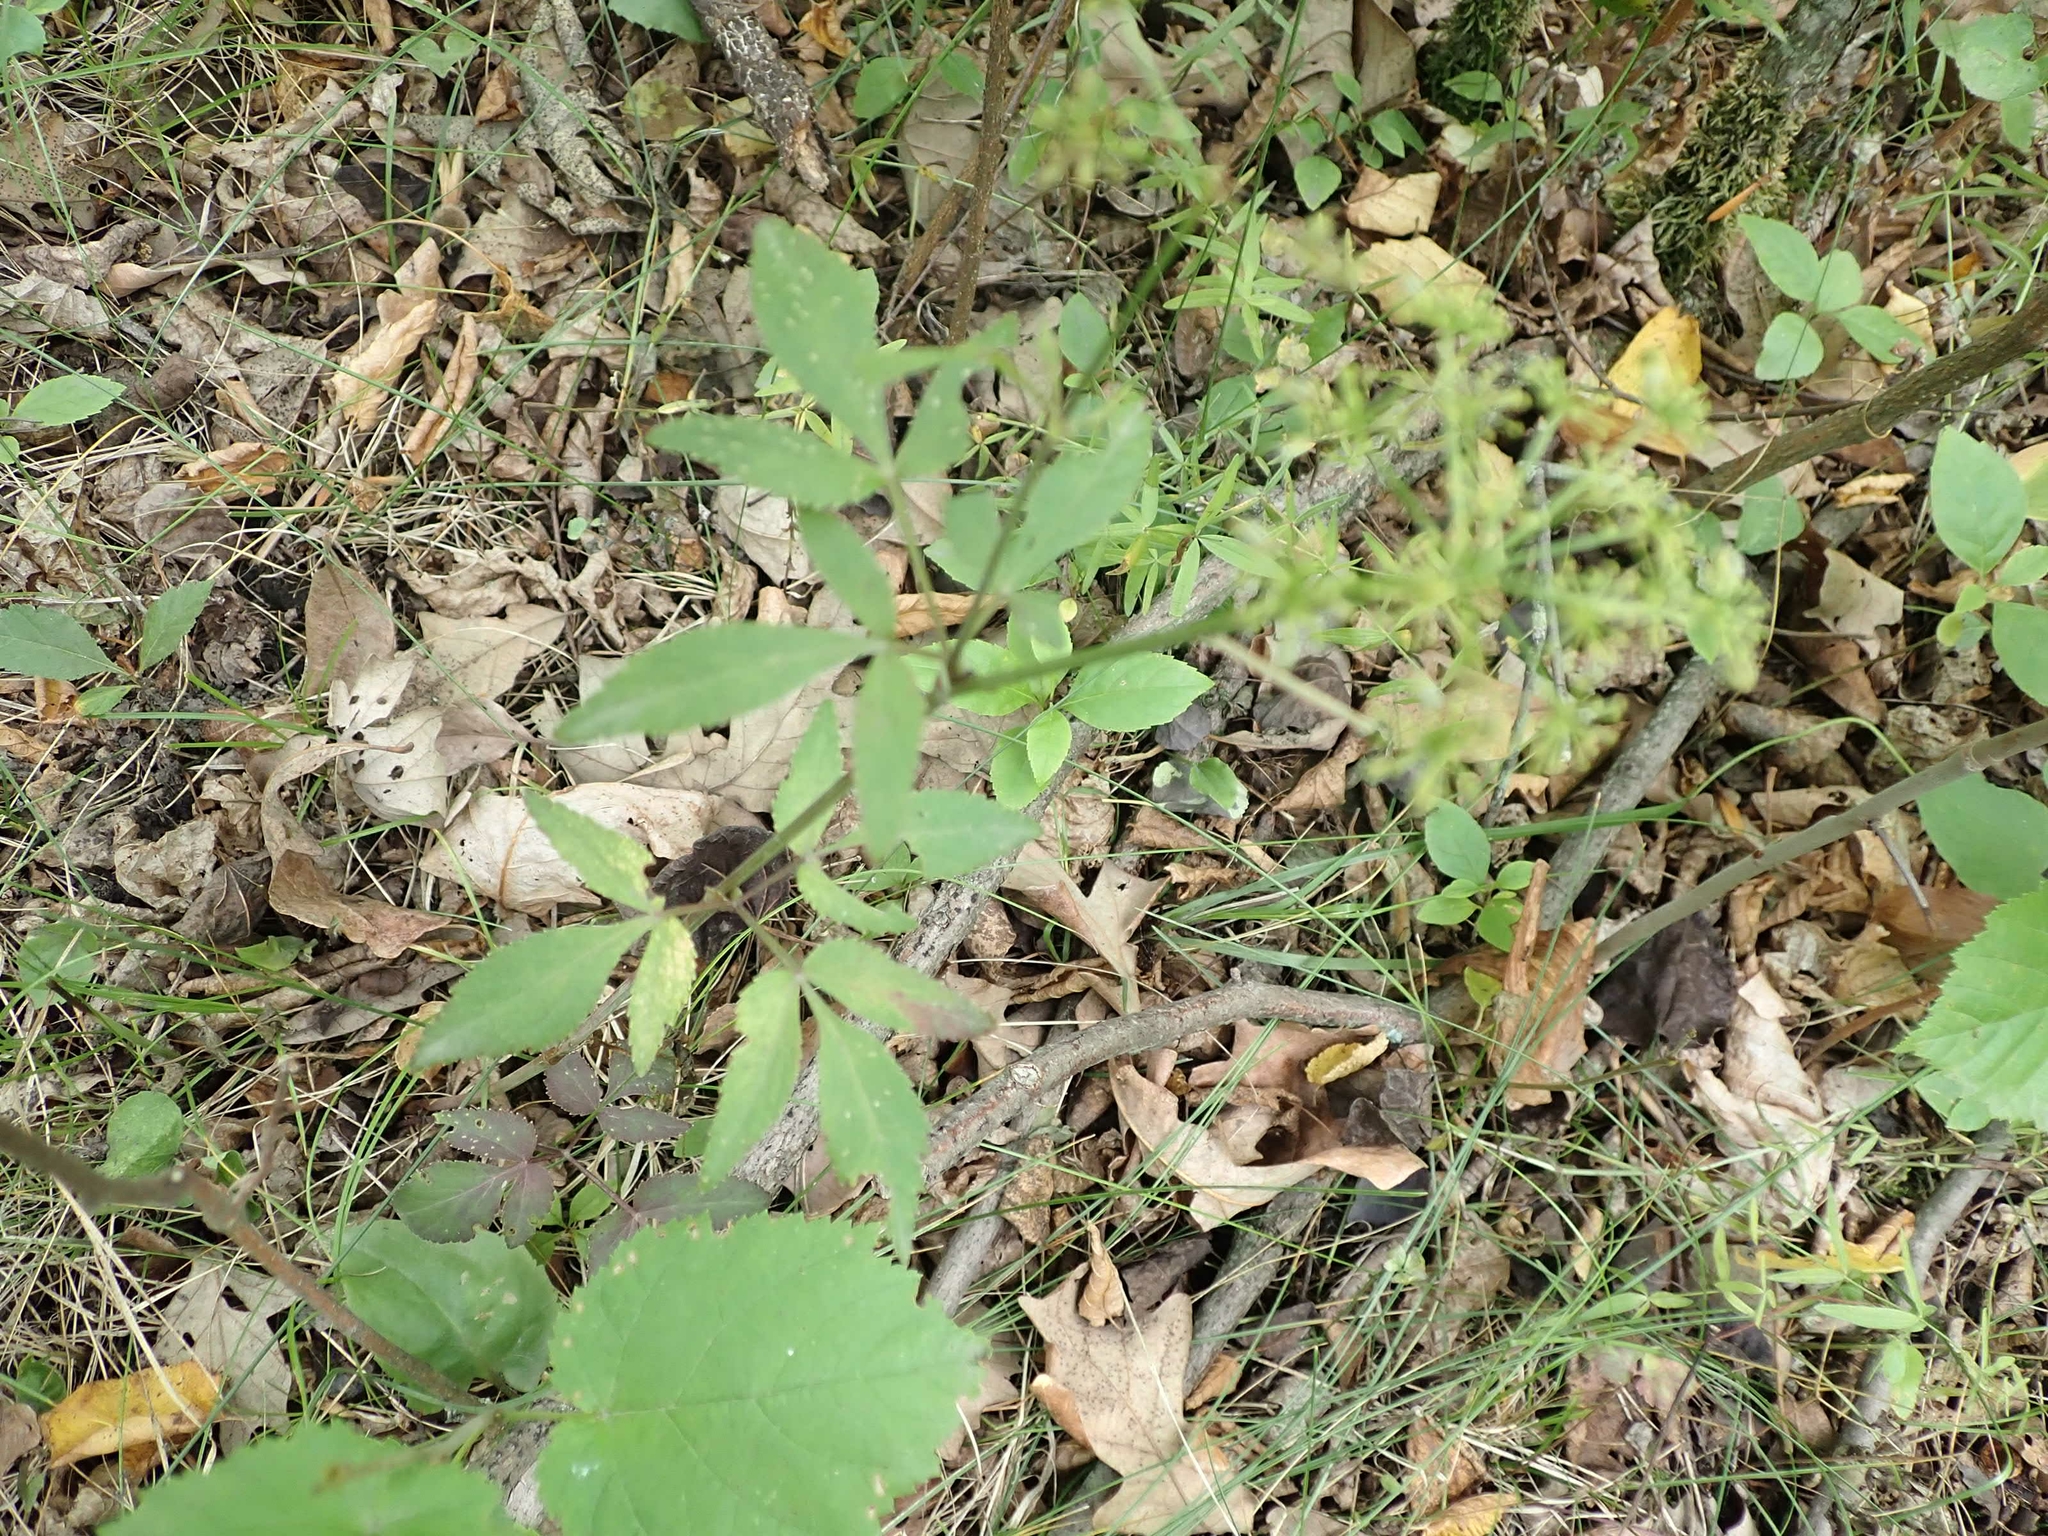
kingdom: Plantae
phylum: Tracheophyta
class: Magnoliopsida
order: Apiales
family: Apiaceae
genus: Zizia
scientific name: Zizia aurea
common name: Golden alexanders
